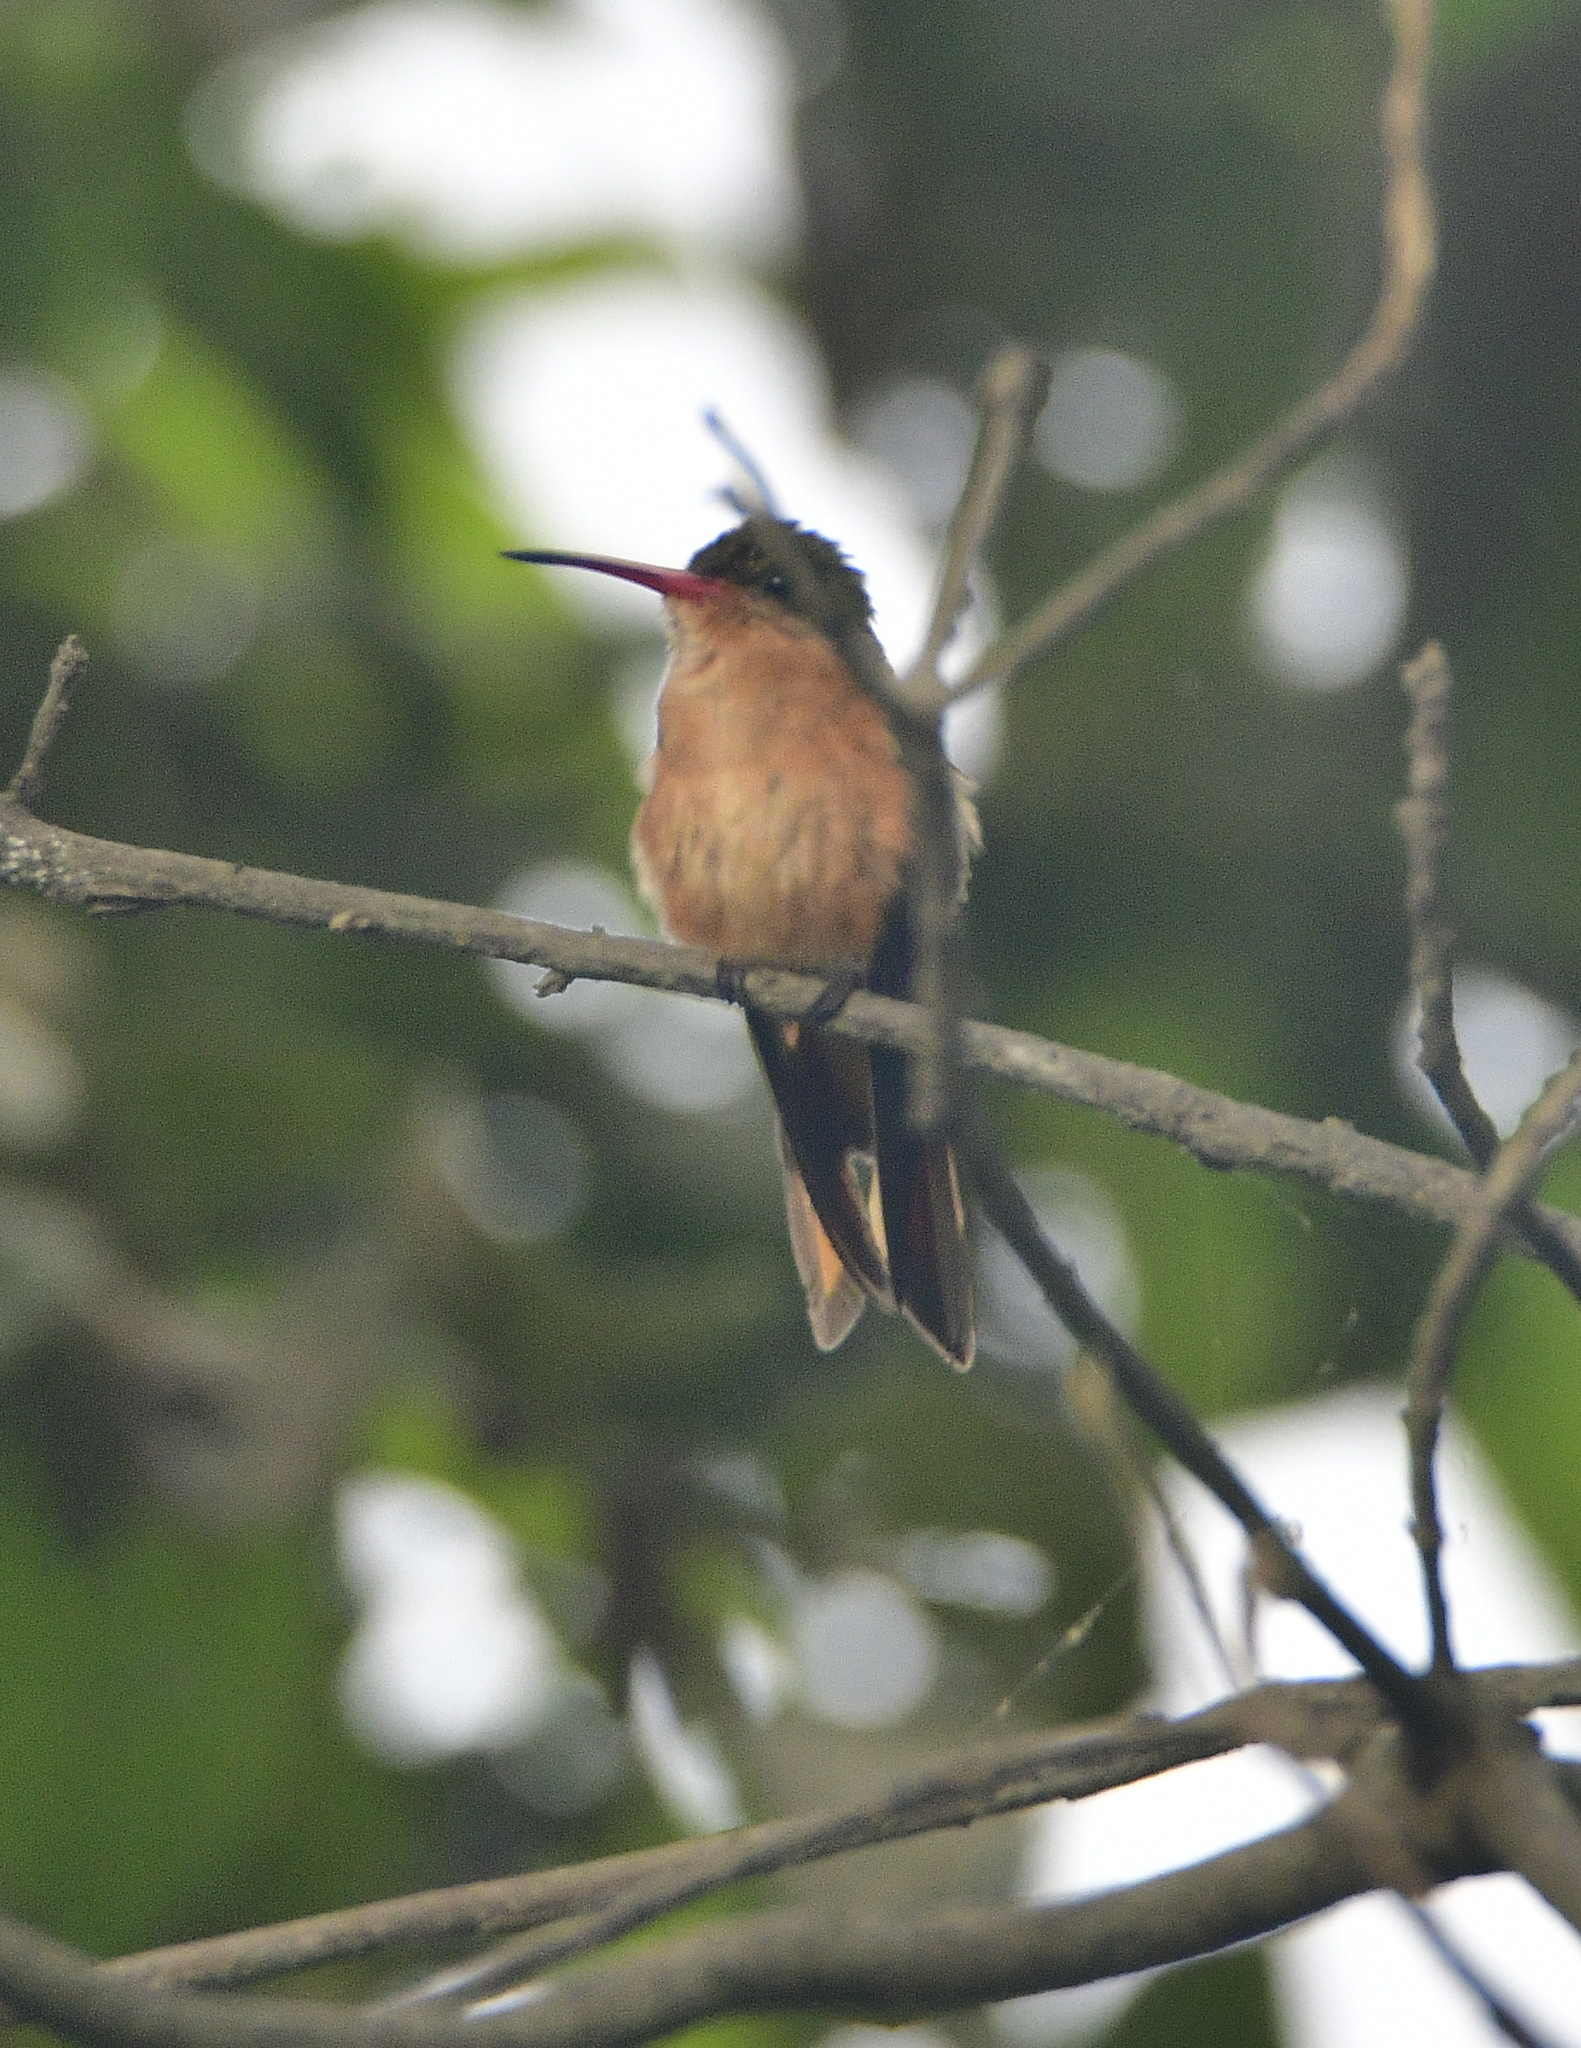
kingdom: Animalia
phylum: Chordata
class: Aves
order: Apodiformes
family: Trochilidae
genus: Amazilia
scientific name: Amazilia rutila
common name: Cinnamon hummingbird
